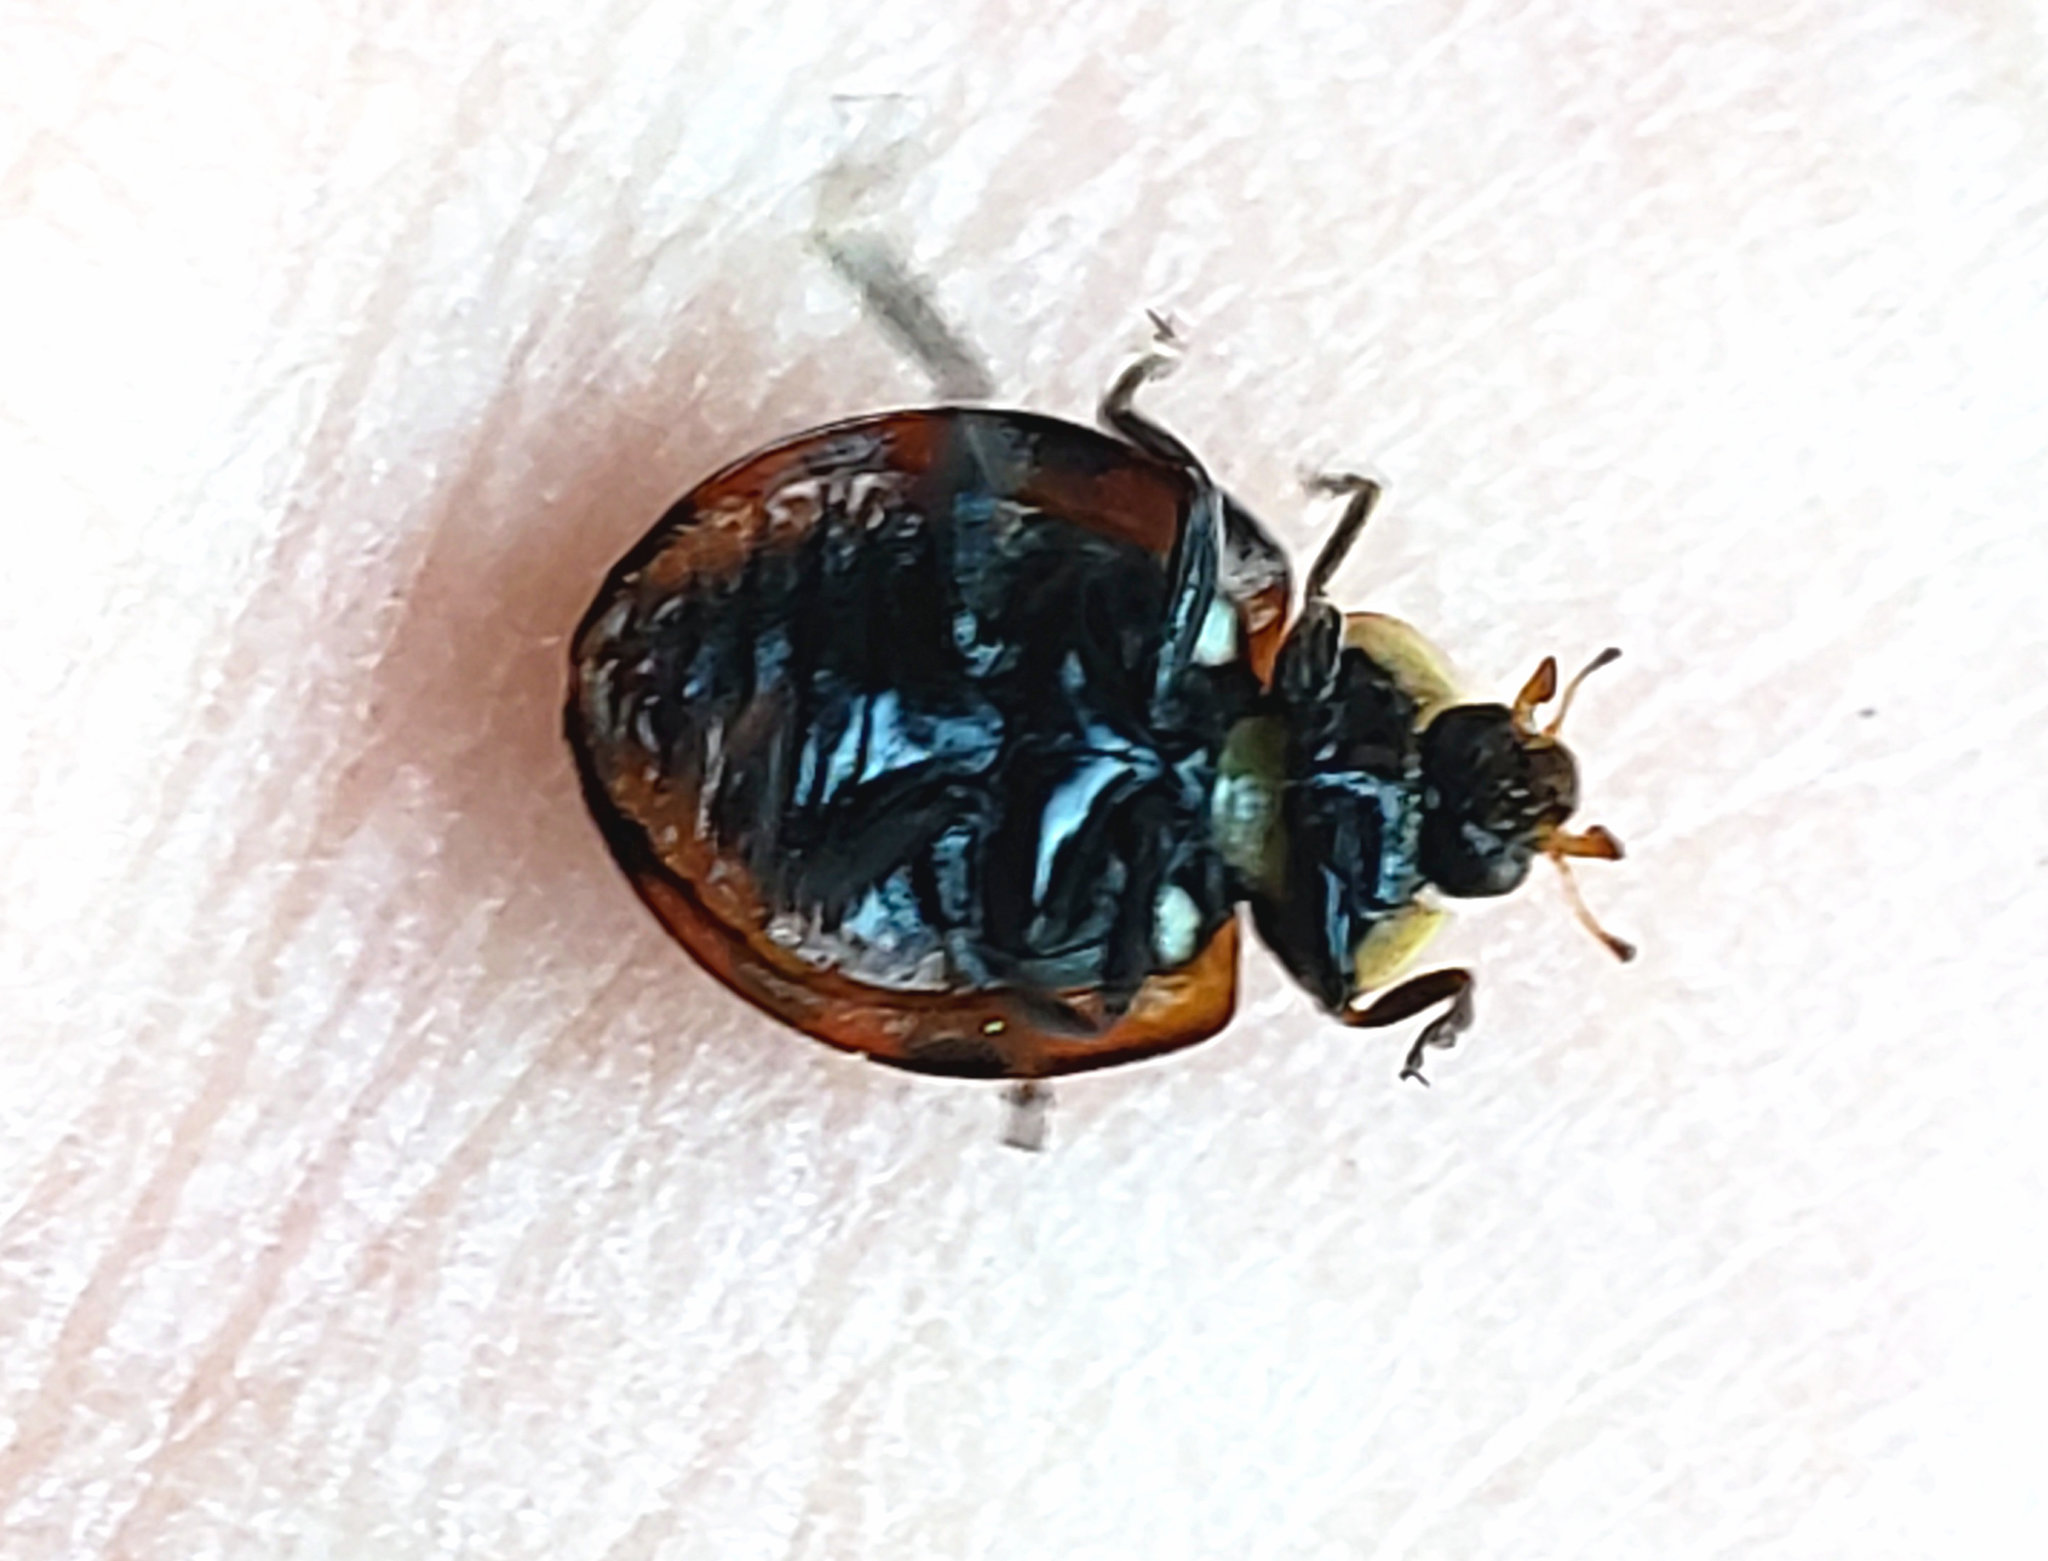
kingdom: Animalia
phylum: Arthropoda
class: Insecta
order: Coleoptera
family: Coccinellidae
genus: Harmonia
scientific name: Harmonia axyridis
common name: Harlequin ladybird
